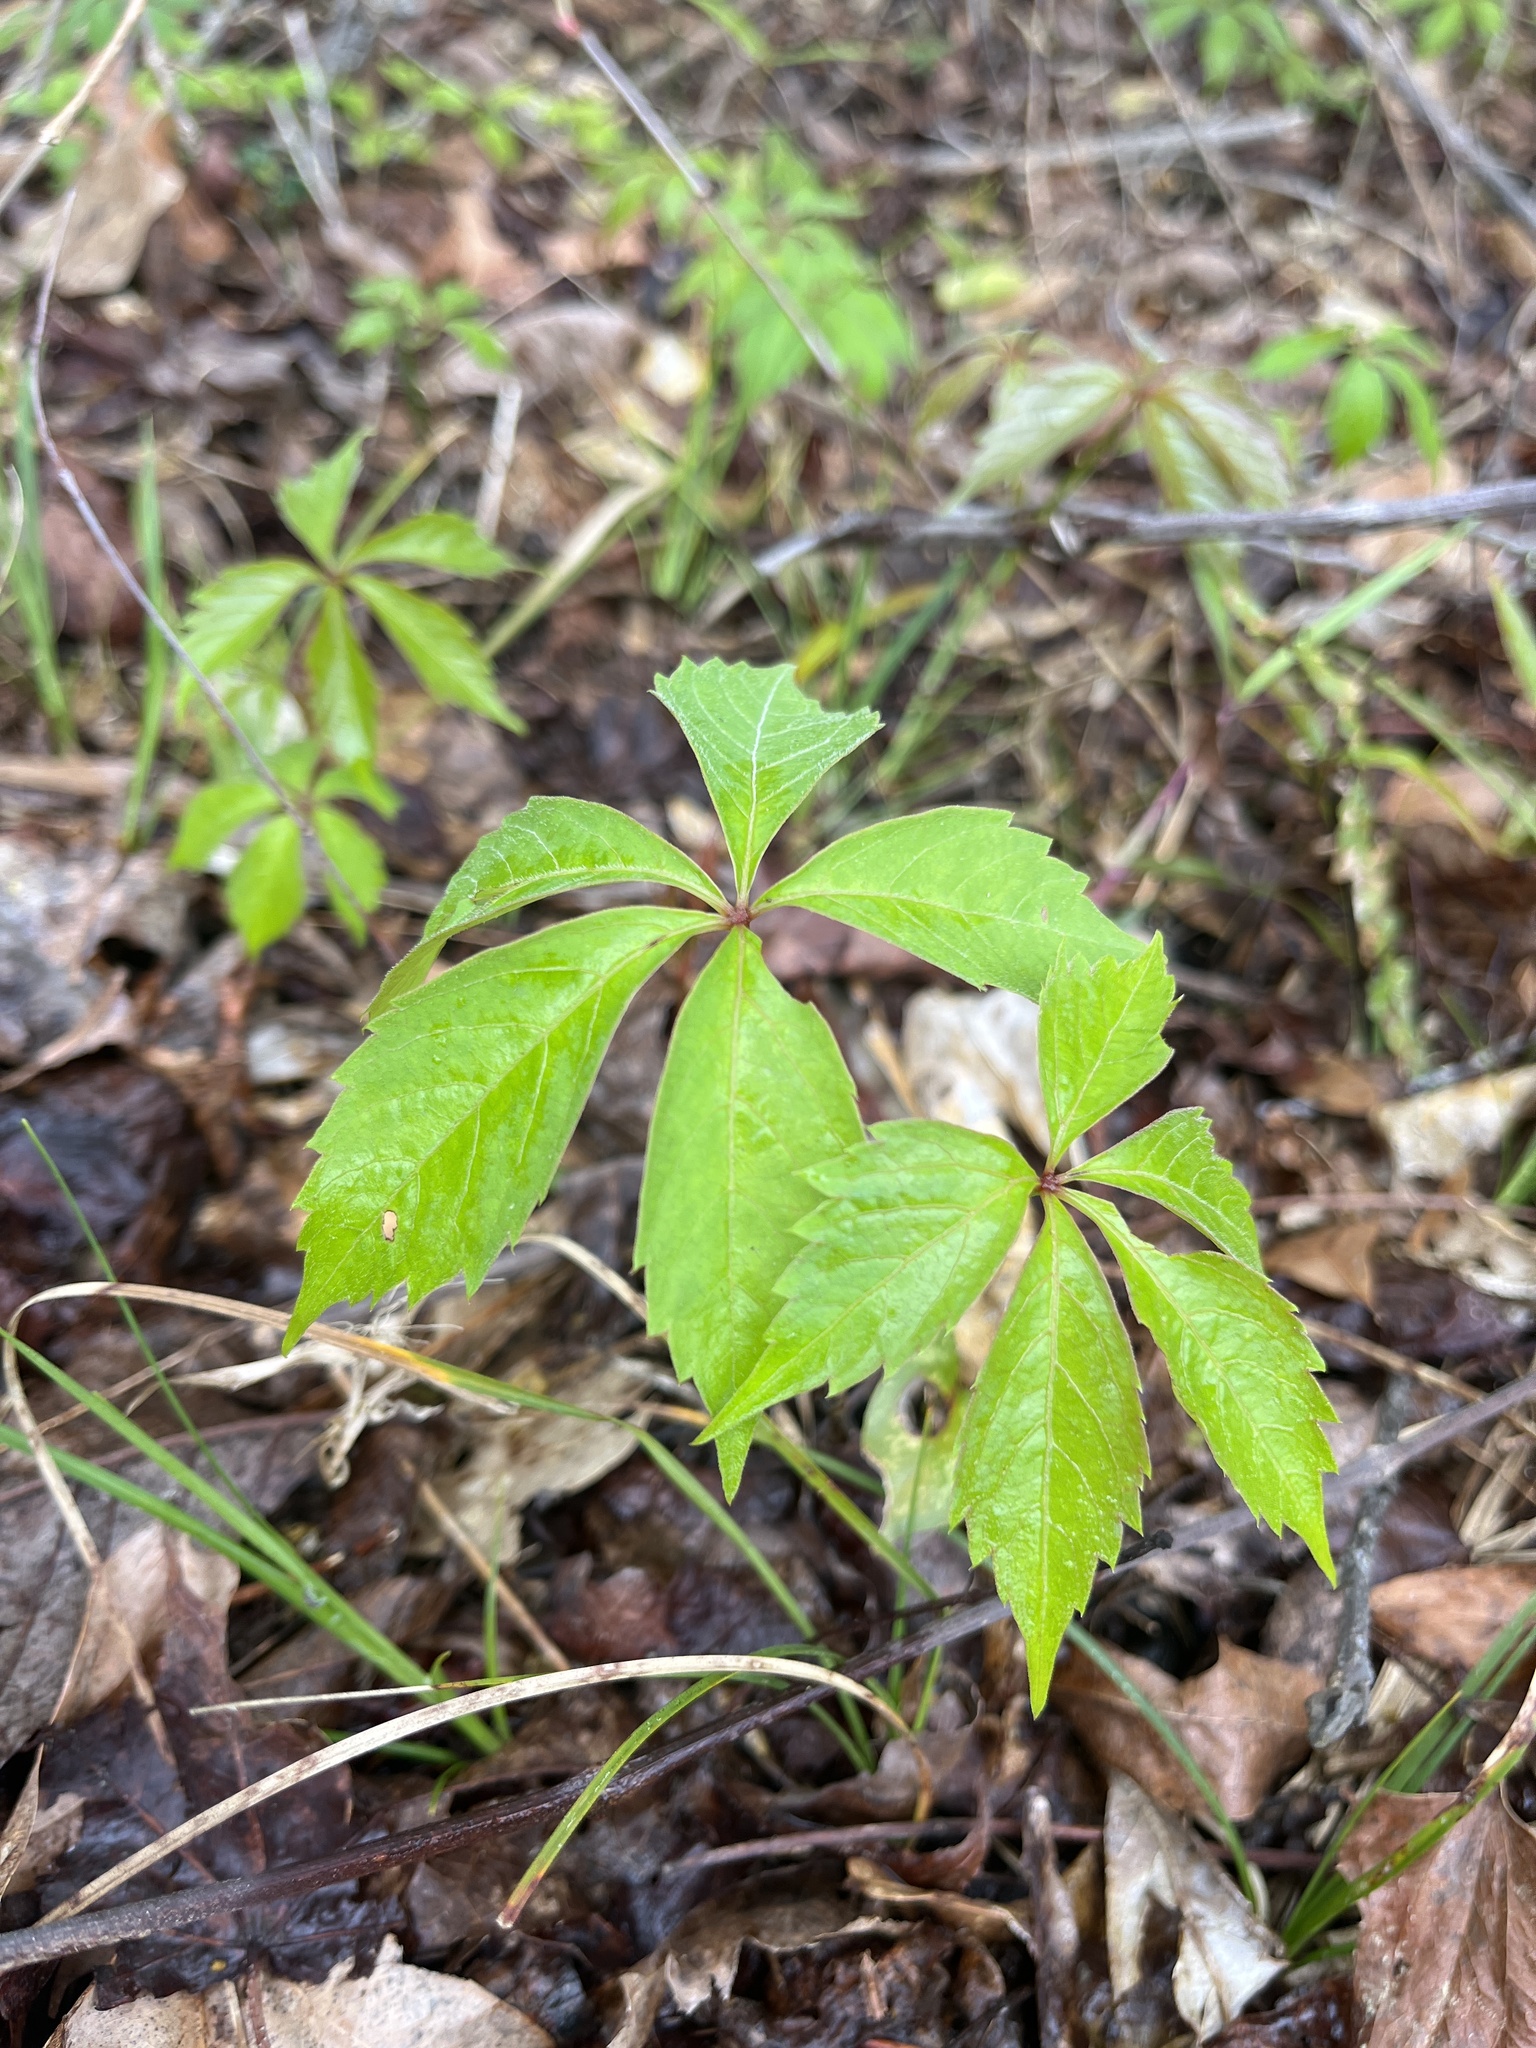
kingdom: Plantae
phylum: Tracheophyta
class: Magnoliopsida
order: Vitales
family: Vitaceae
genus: Parthenocissus
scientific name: Parthenocissus quinquefolia
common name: Virginia-creeper
